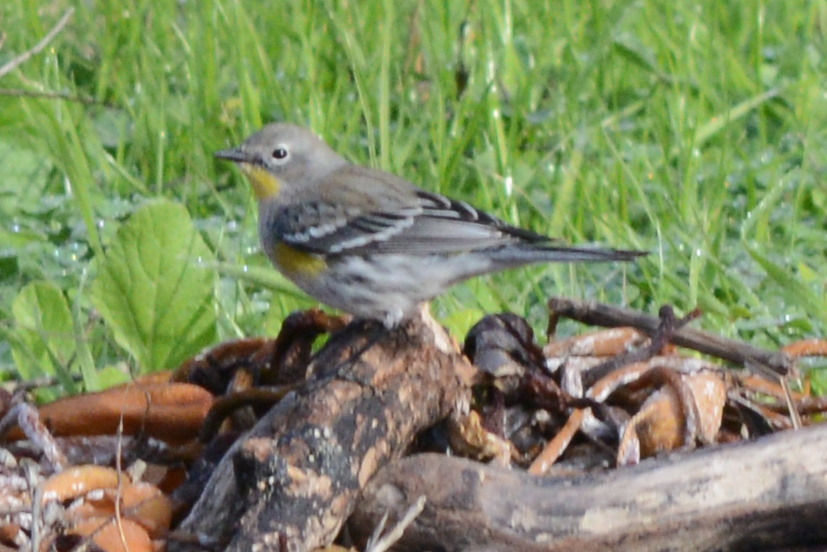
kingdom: Animalia
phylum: Chordata
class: Aves
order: Passeriformes
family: Parulidae
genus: Setophaga
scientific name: Setophaga coronata
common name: Myrtle warbler
